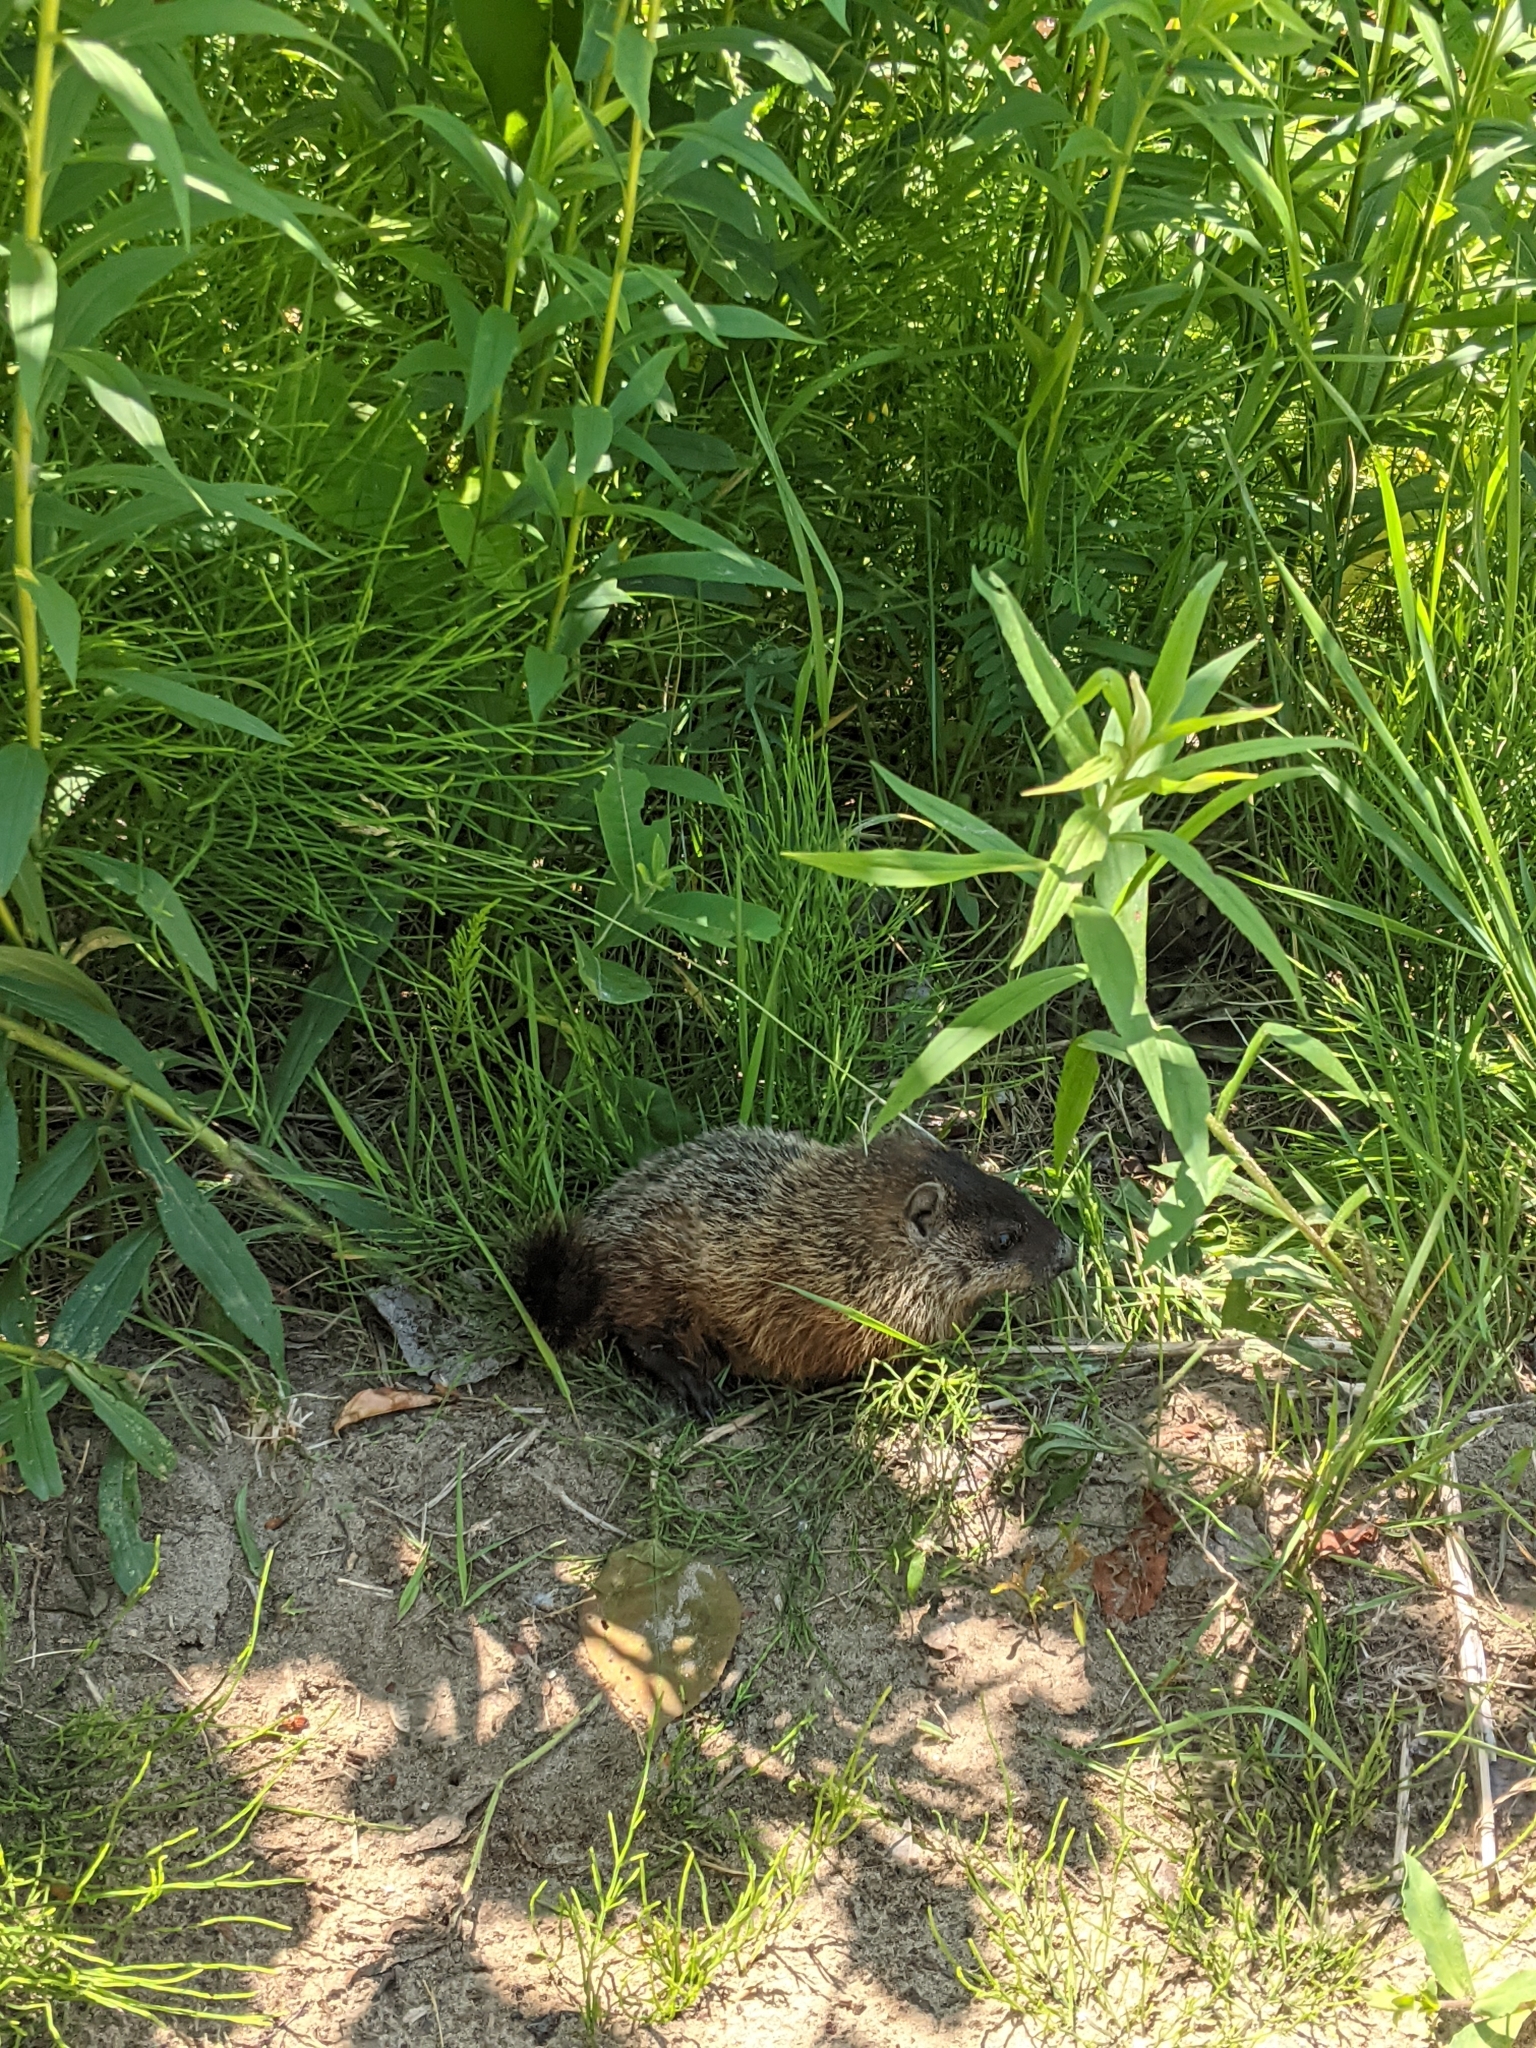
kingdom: Animalia
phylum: Chordata
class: Mammalia
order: Rodentia
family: Sciuridae
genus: Marmota
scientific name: Marmota monax
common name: Groundhog
